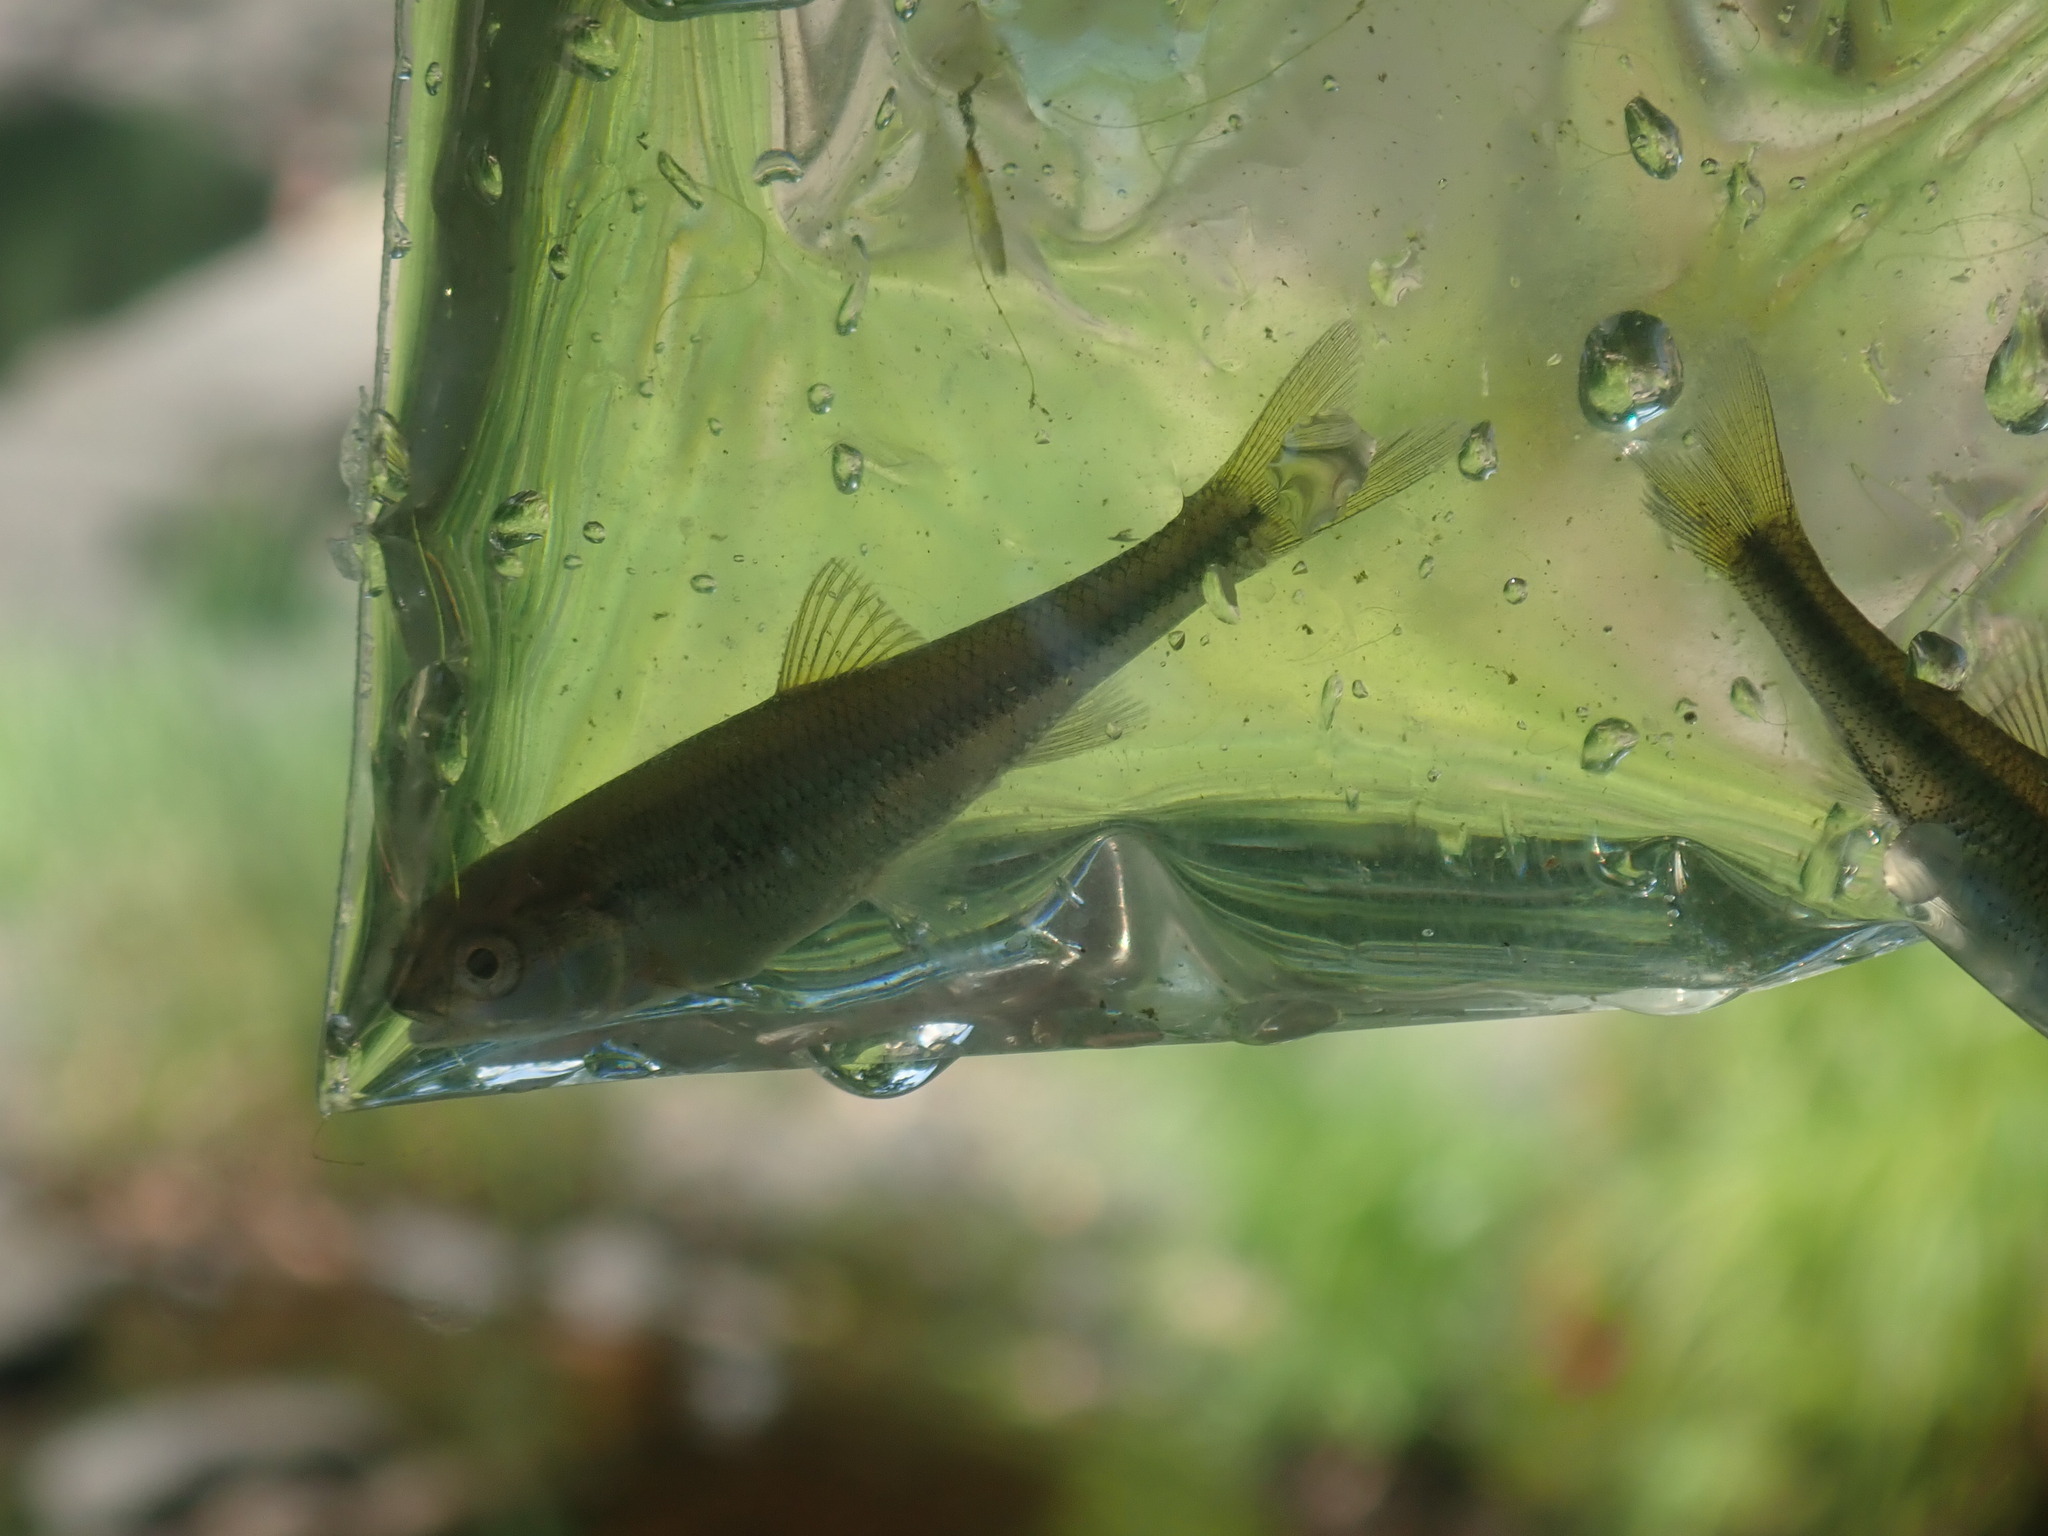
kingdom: Animalia
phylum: Chordata
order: Cypriniformes
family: Cyprinidae
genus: Luxilus
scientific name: Luxilus cornutus
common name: Common shiner
